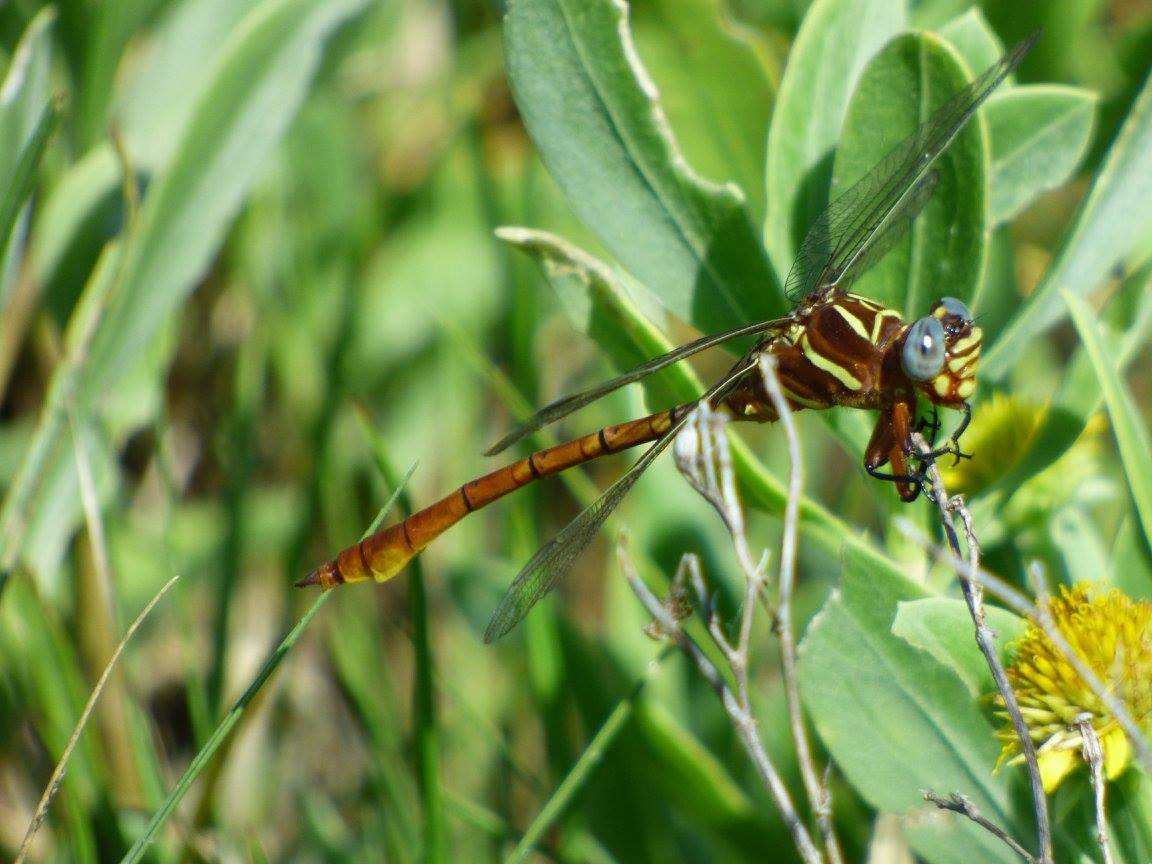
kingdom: Animalia
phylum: Arthropoda
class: Insecta
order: Odonata
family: Gomphidae
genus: Aphylla
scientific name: Aphylla williamsoni
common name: Two-striped forceptail
